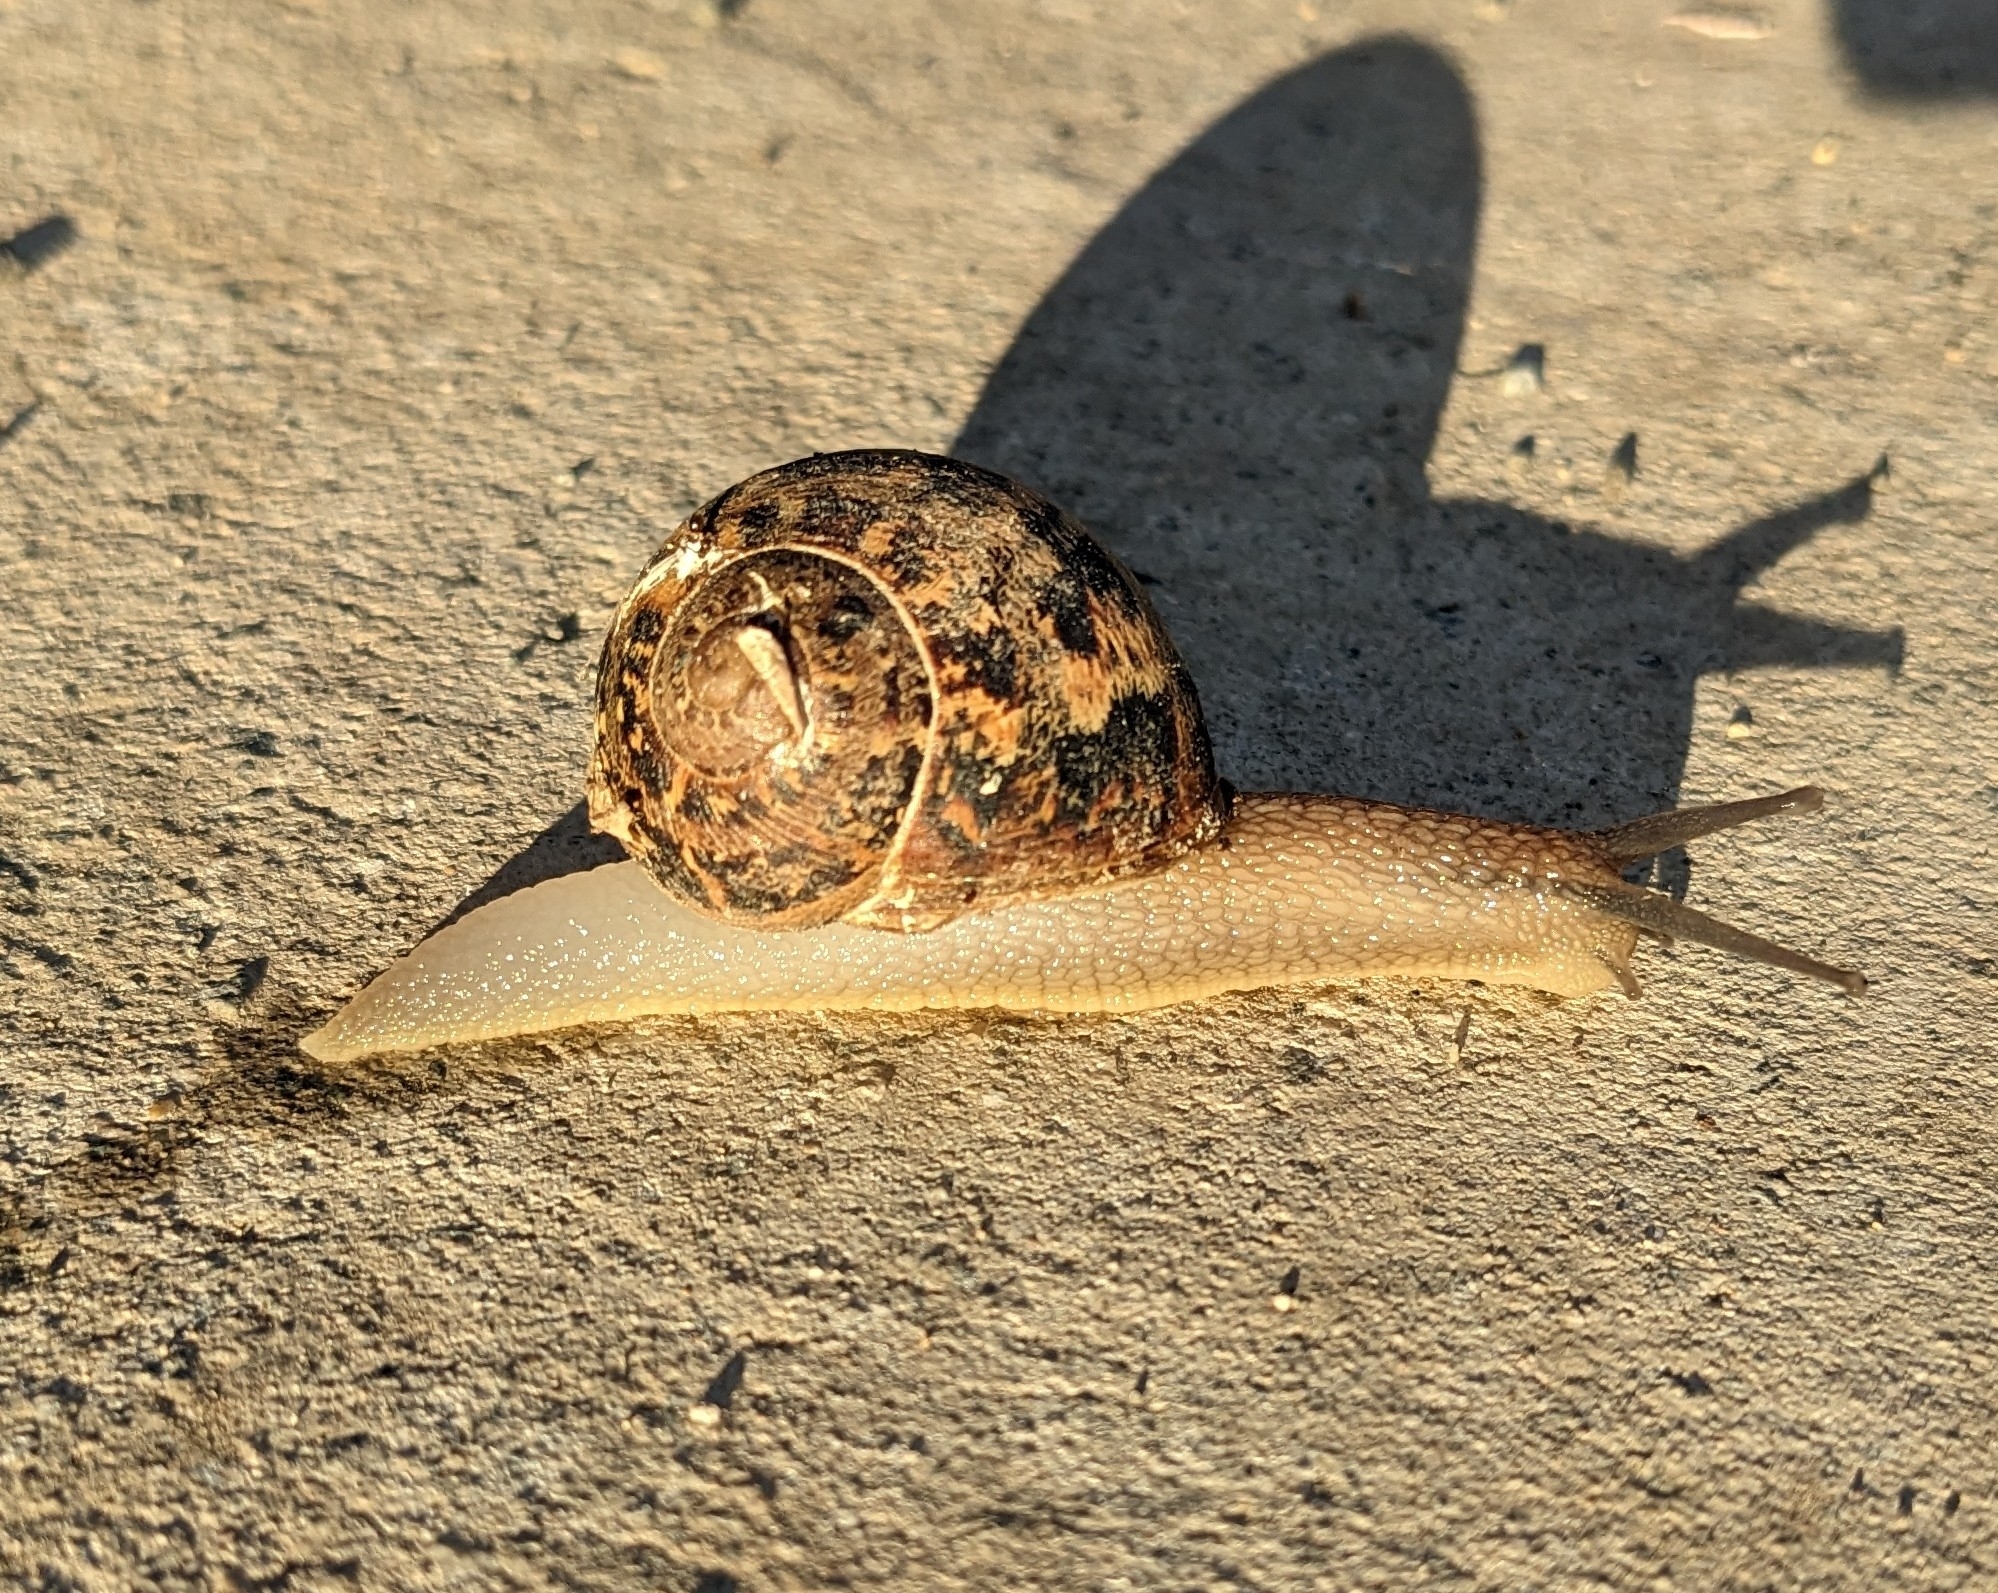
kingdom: Animalia
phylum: Mollusca
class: Gastropoda
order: Stylommatophora
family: Helicidae
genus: Cornu
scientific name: Cornu aspersum
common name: Brown garden snail
